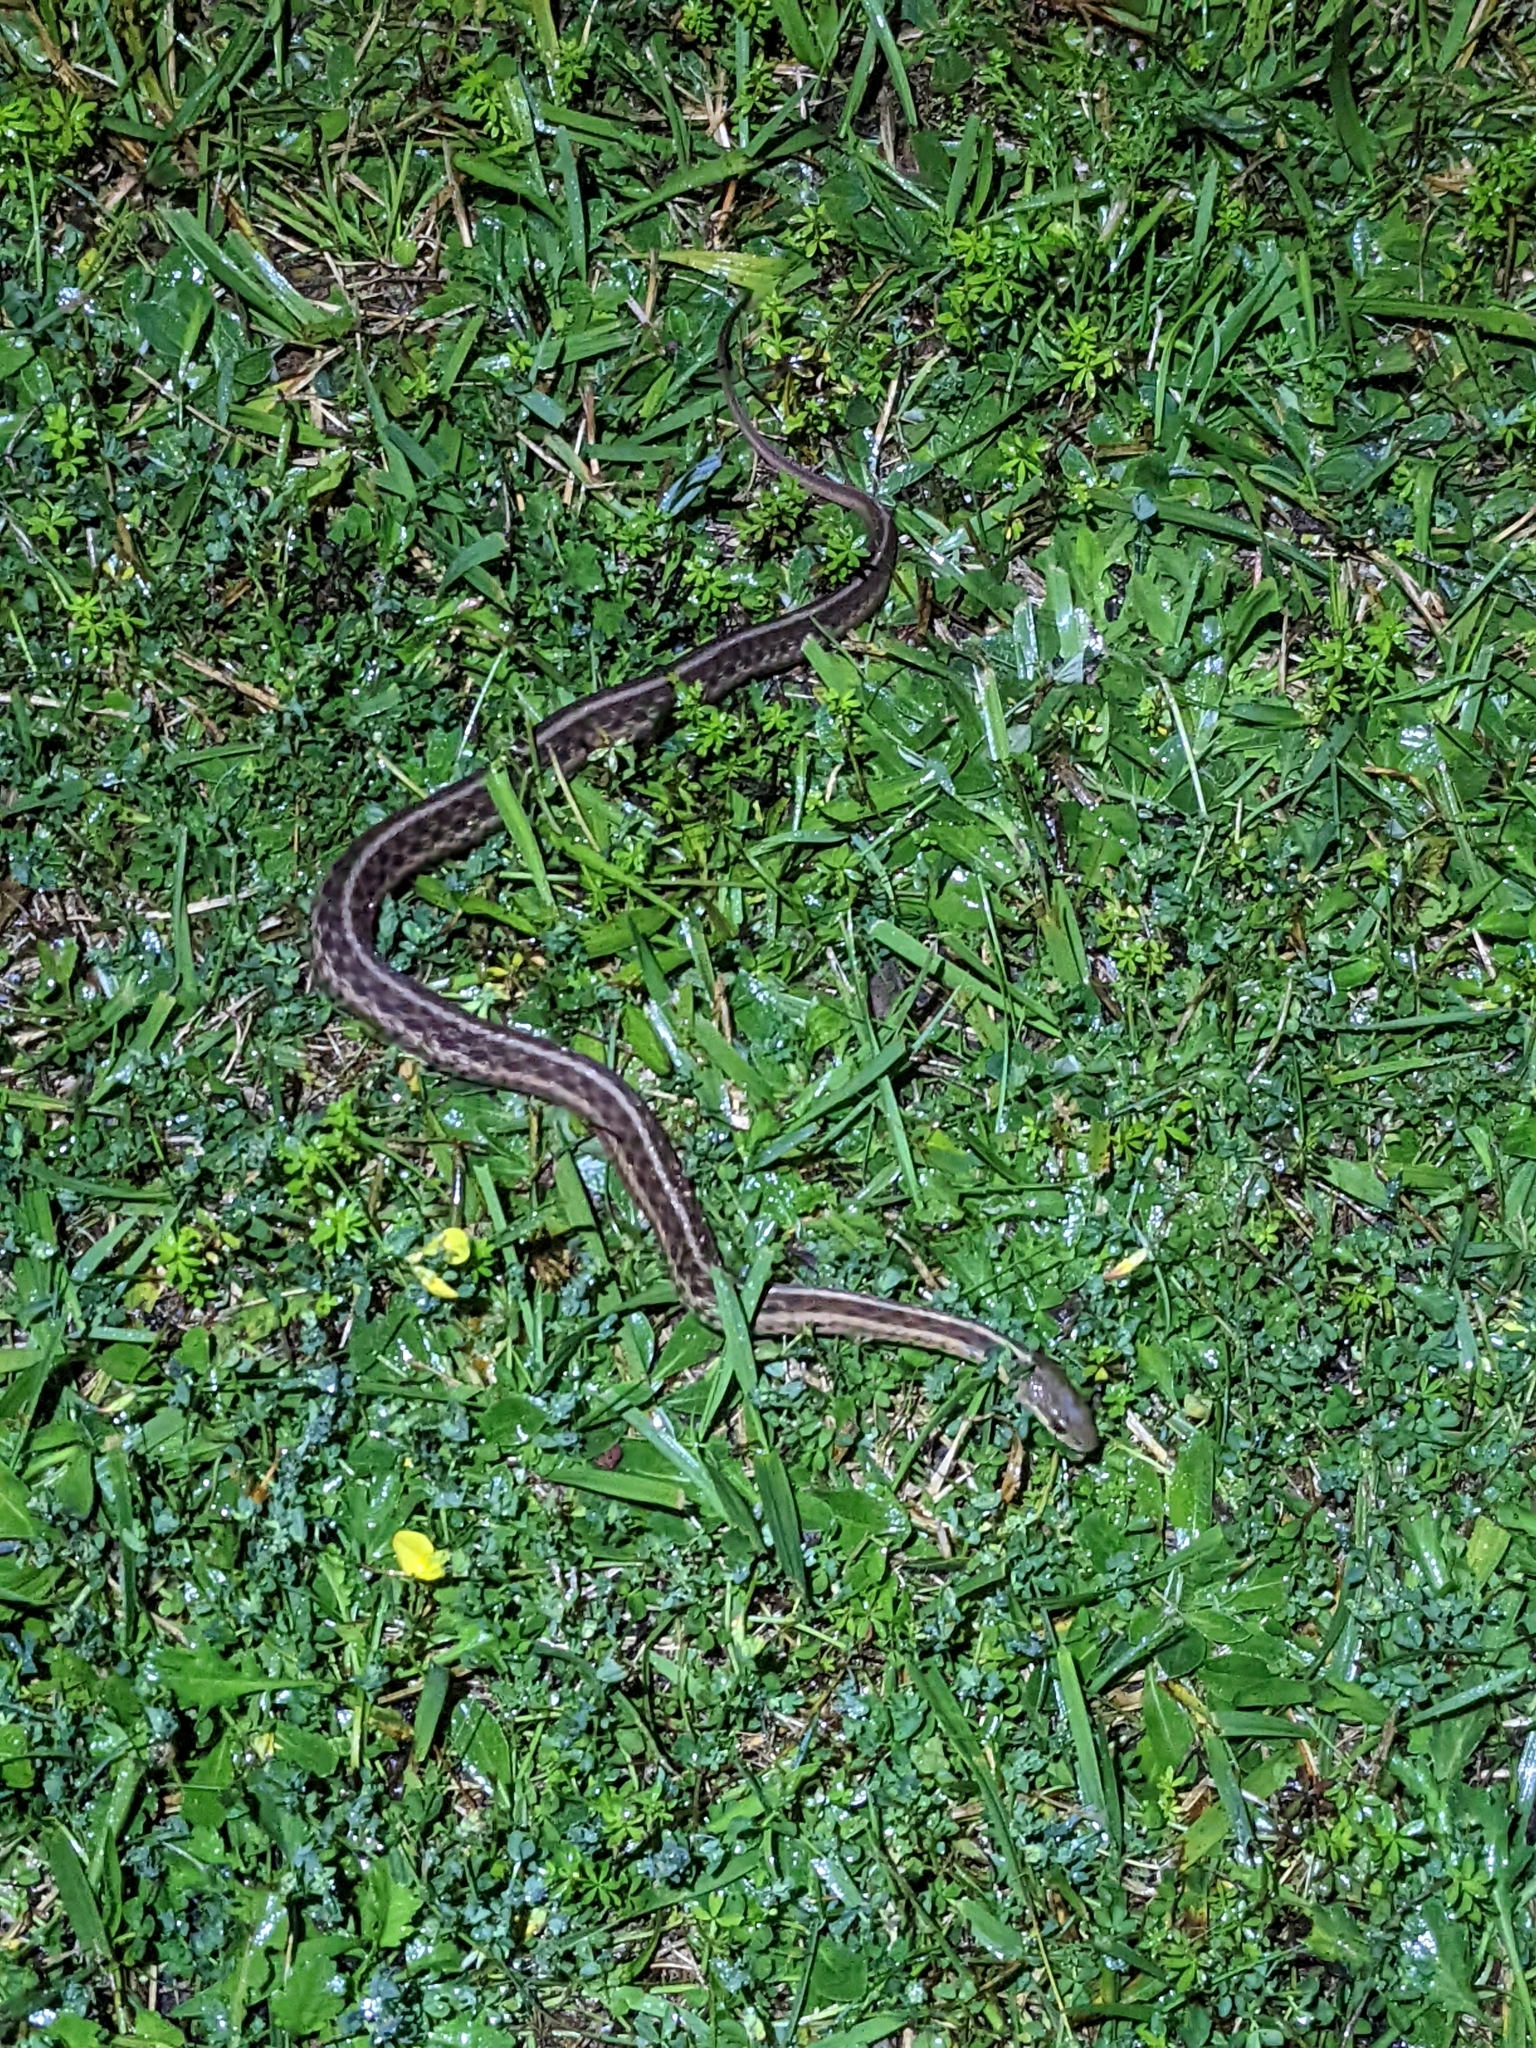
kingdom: Animalia
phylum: Chordata
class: Squamata
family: Colubridae
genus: Thamnophis
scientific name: Thamnophis sirtalis
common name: Common garter snake
